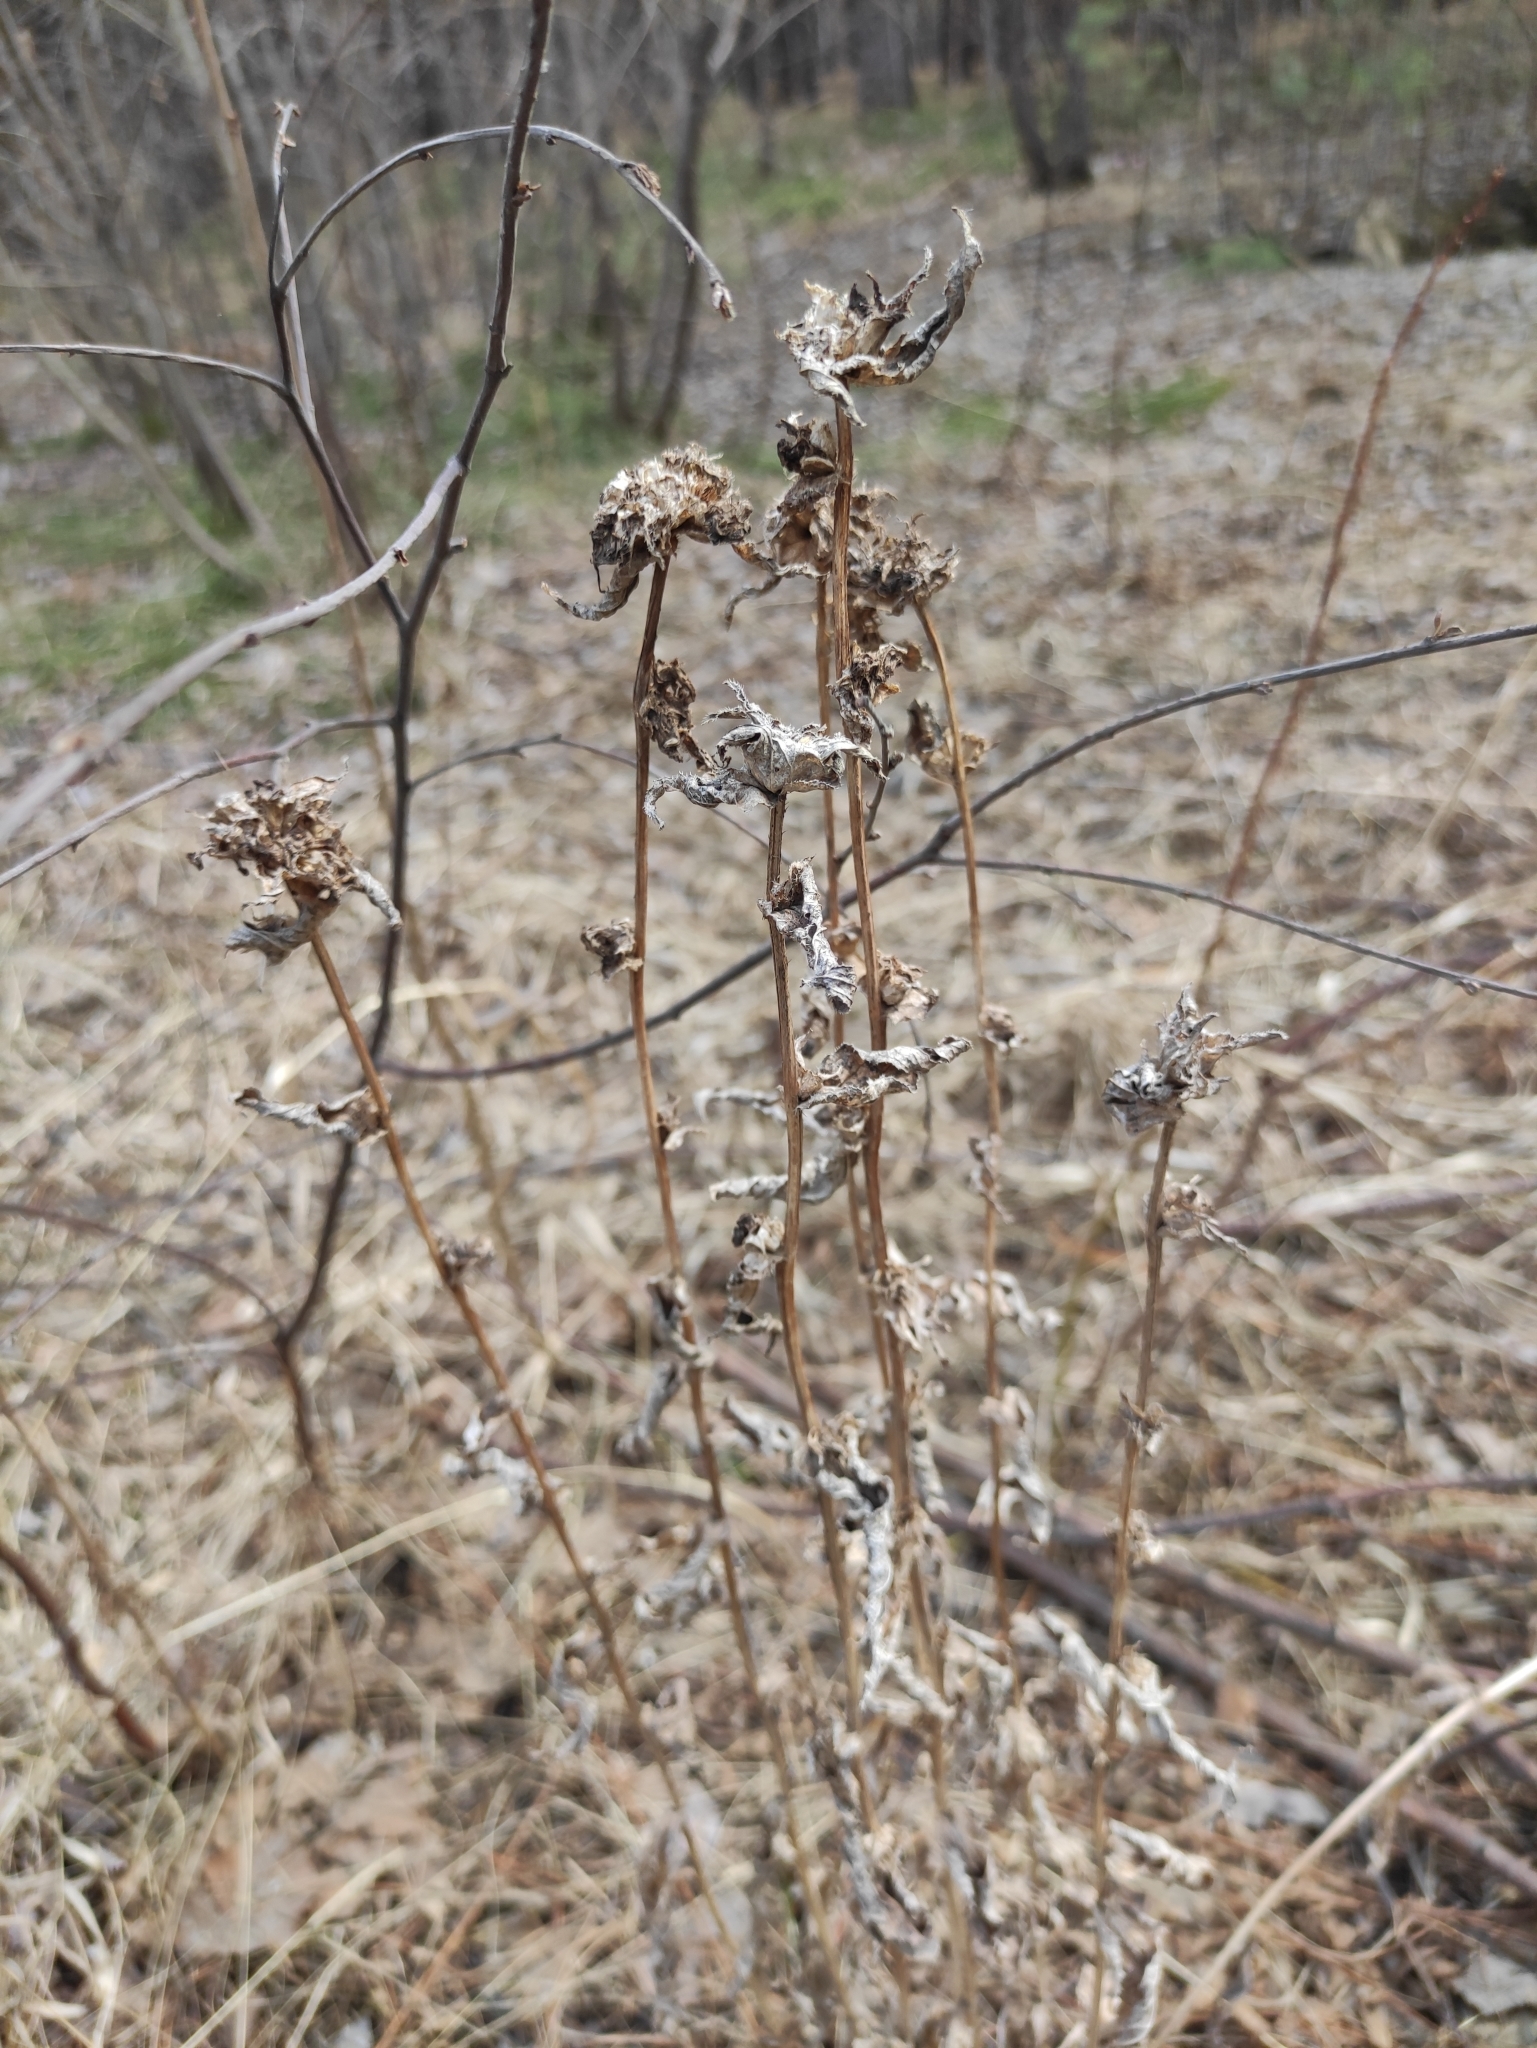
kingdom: Plantae
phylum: Tracheophyta
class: Magnoliopsida
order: Asterales
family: Campanulaceae
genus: Campanula
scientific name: Campanula glomerata
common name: Clustered bellflower
